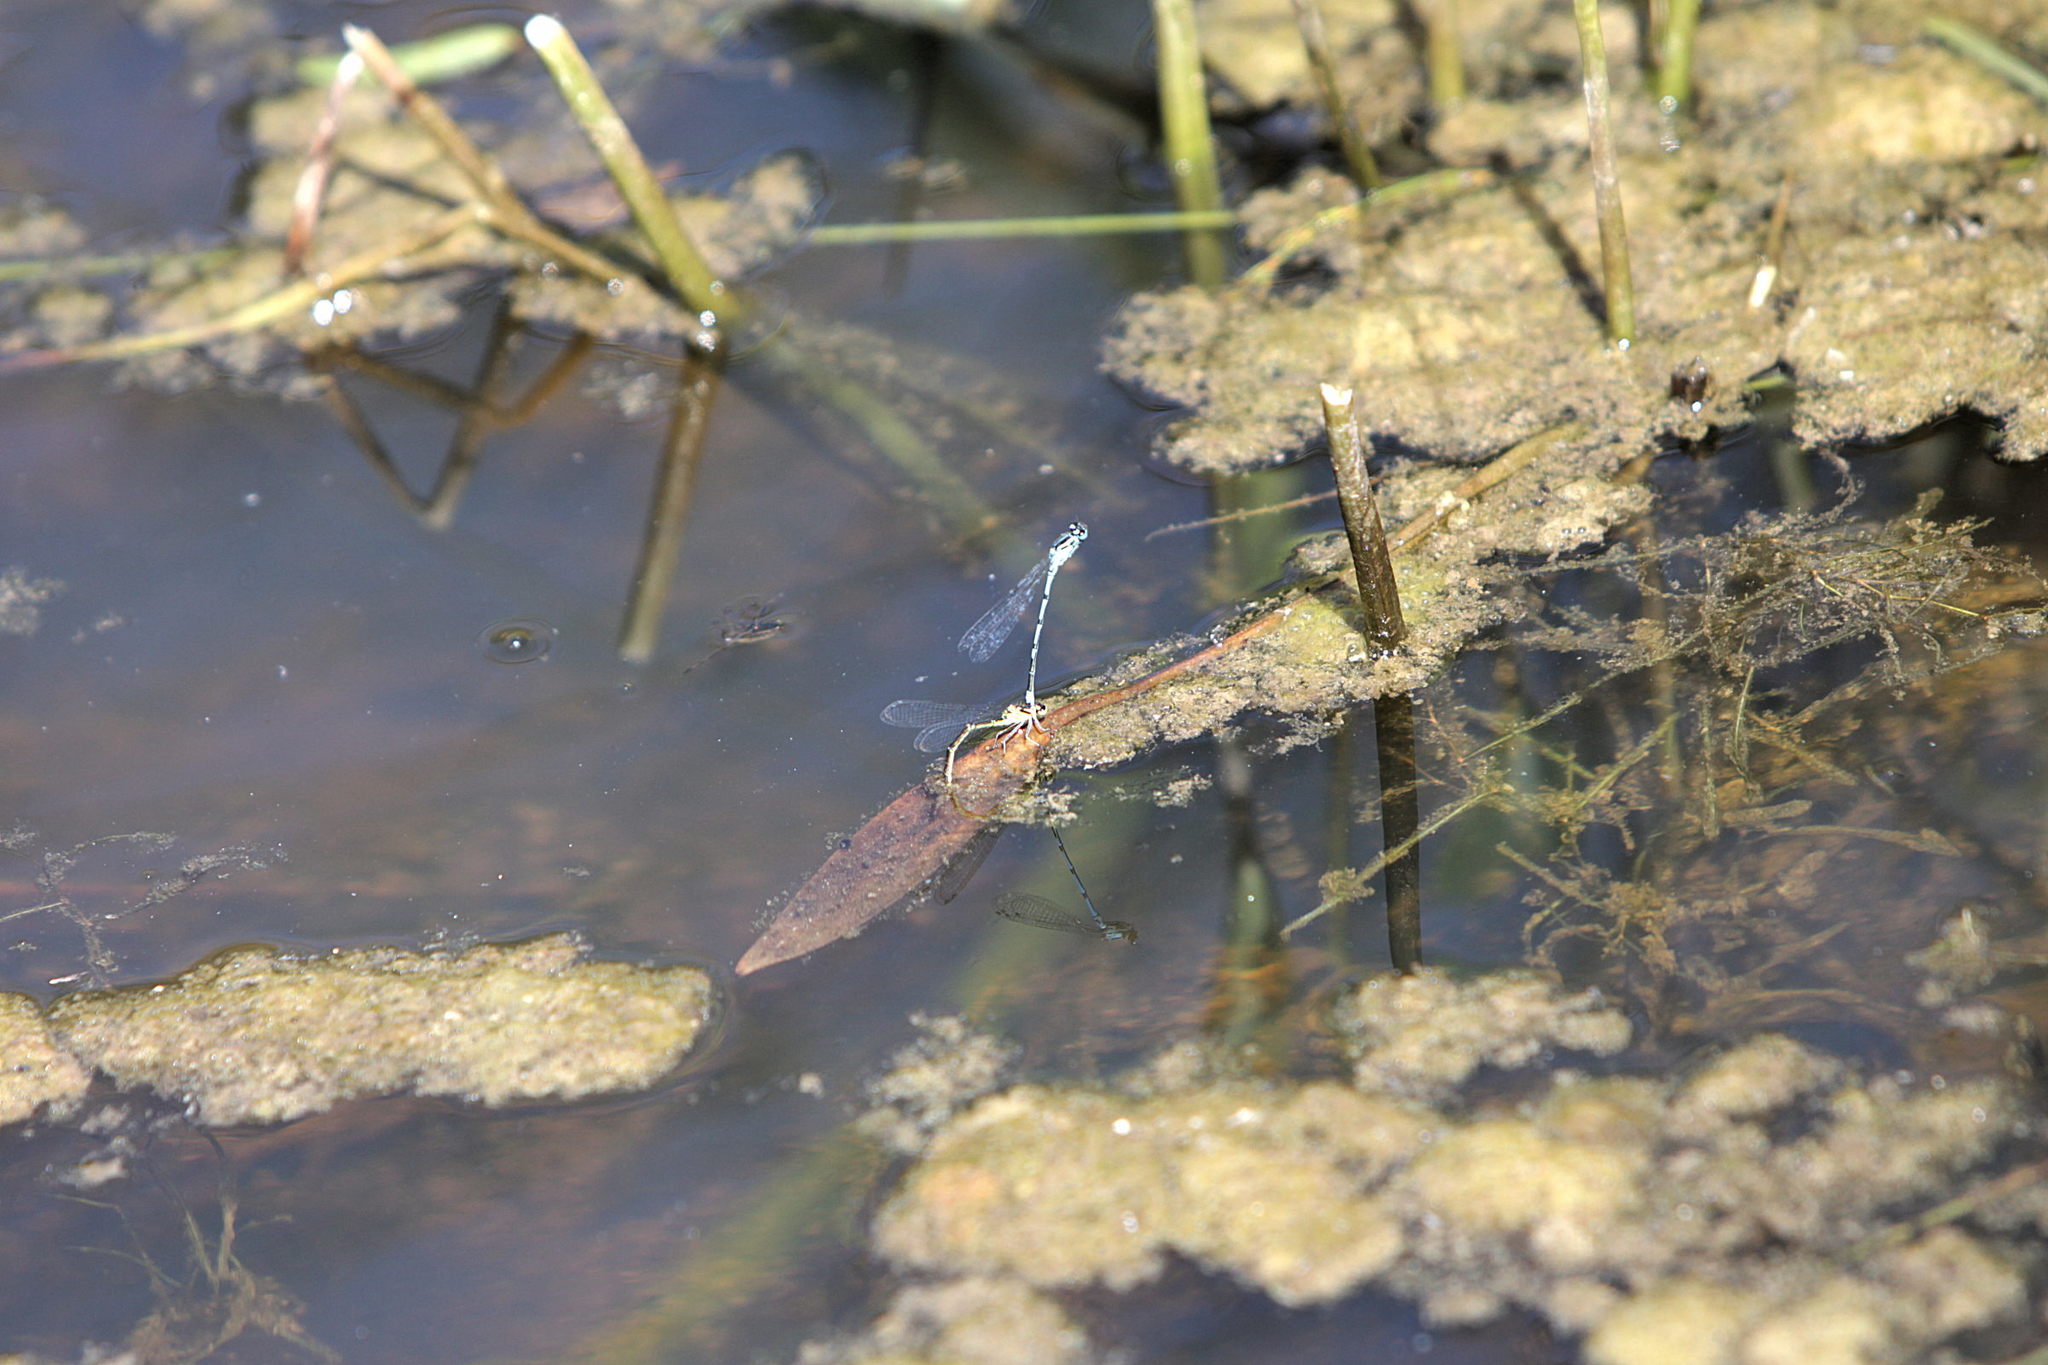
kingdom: Animalia
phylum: Arthropoda
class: Insecta
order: Odonata
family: Coenagrionidae
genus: Coenagrion
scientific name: Coenagrion puella
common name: Azure damselfly
